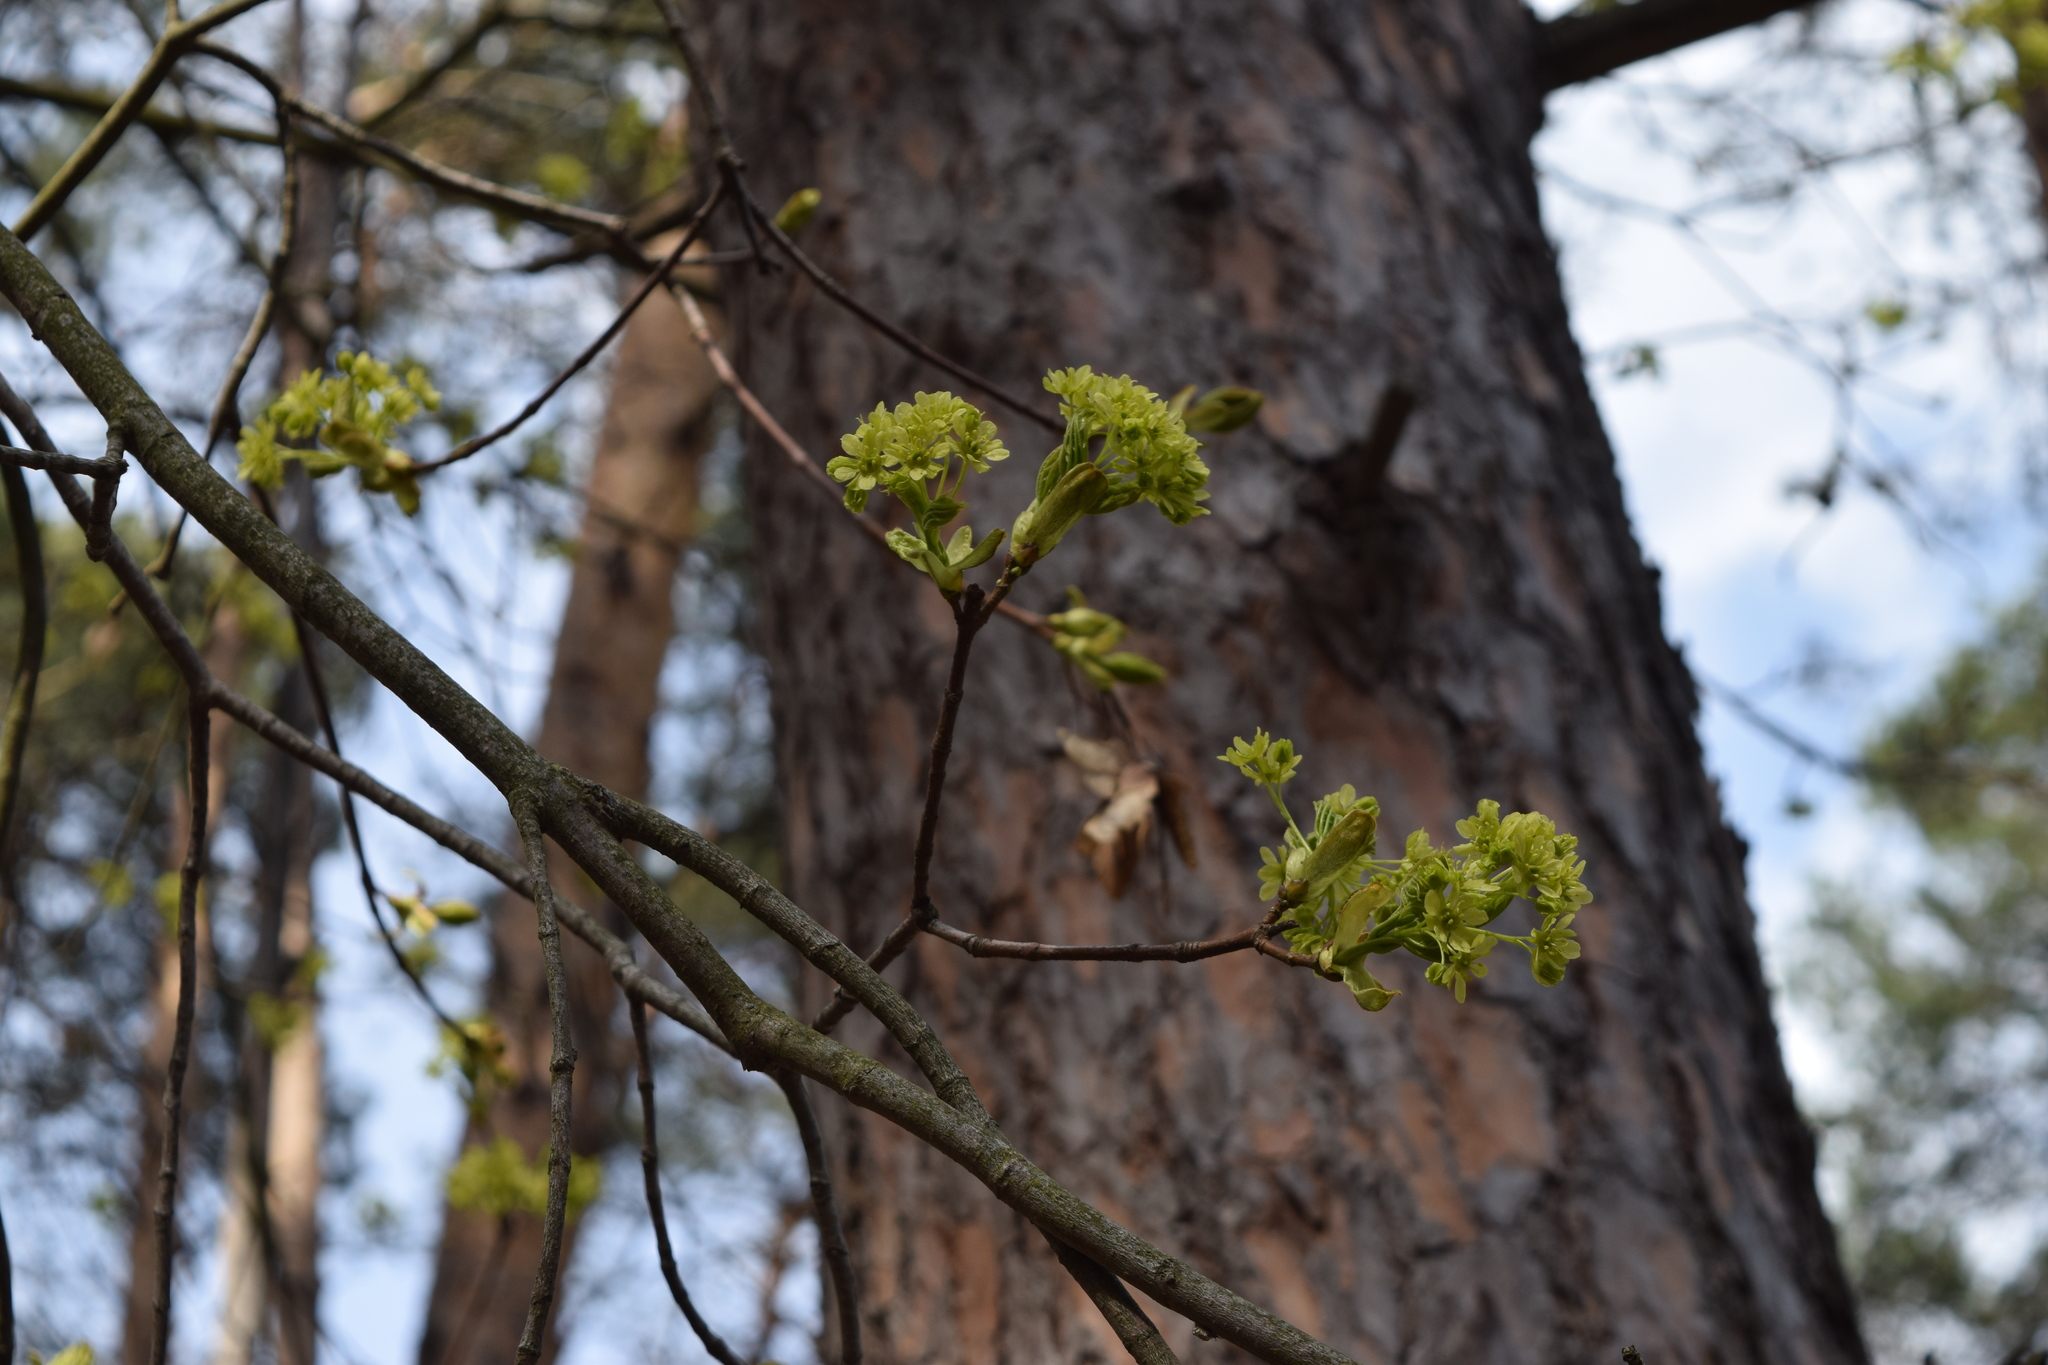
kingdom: Plantae
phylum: Tracheophyta
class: Magnoliopsida
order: Sapindales
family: Sapindaceae
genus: Acer
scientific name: Acer platanoides
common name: Norway maple
